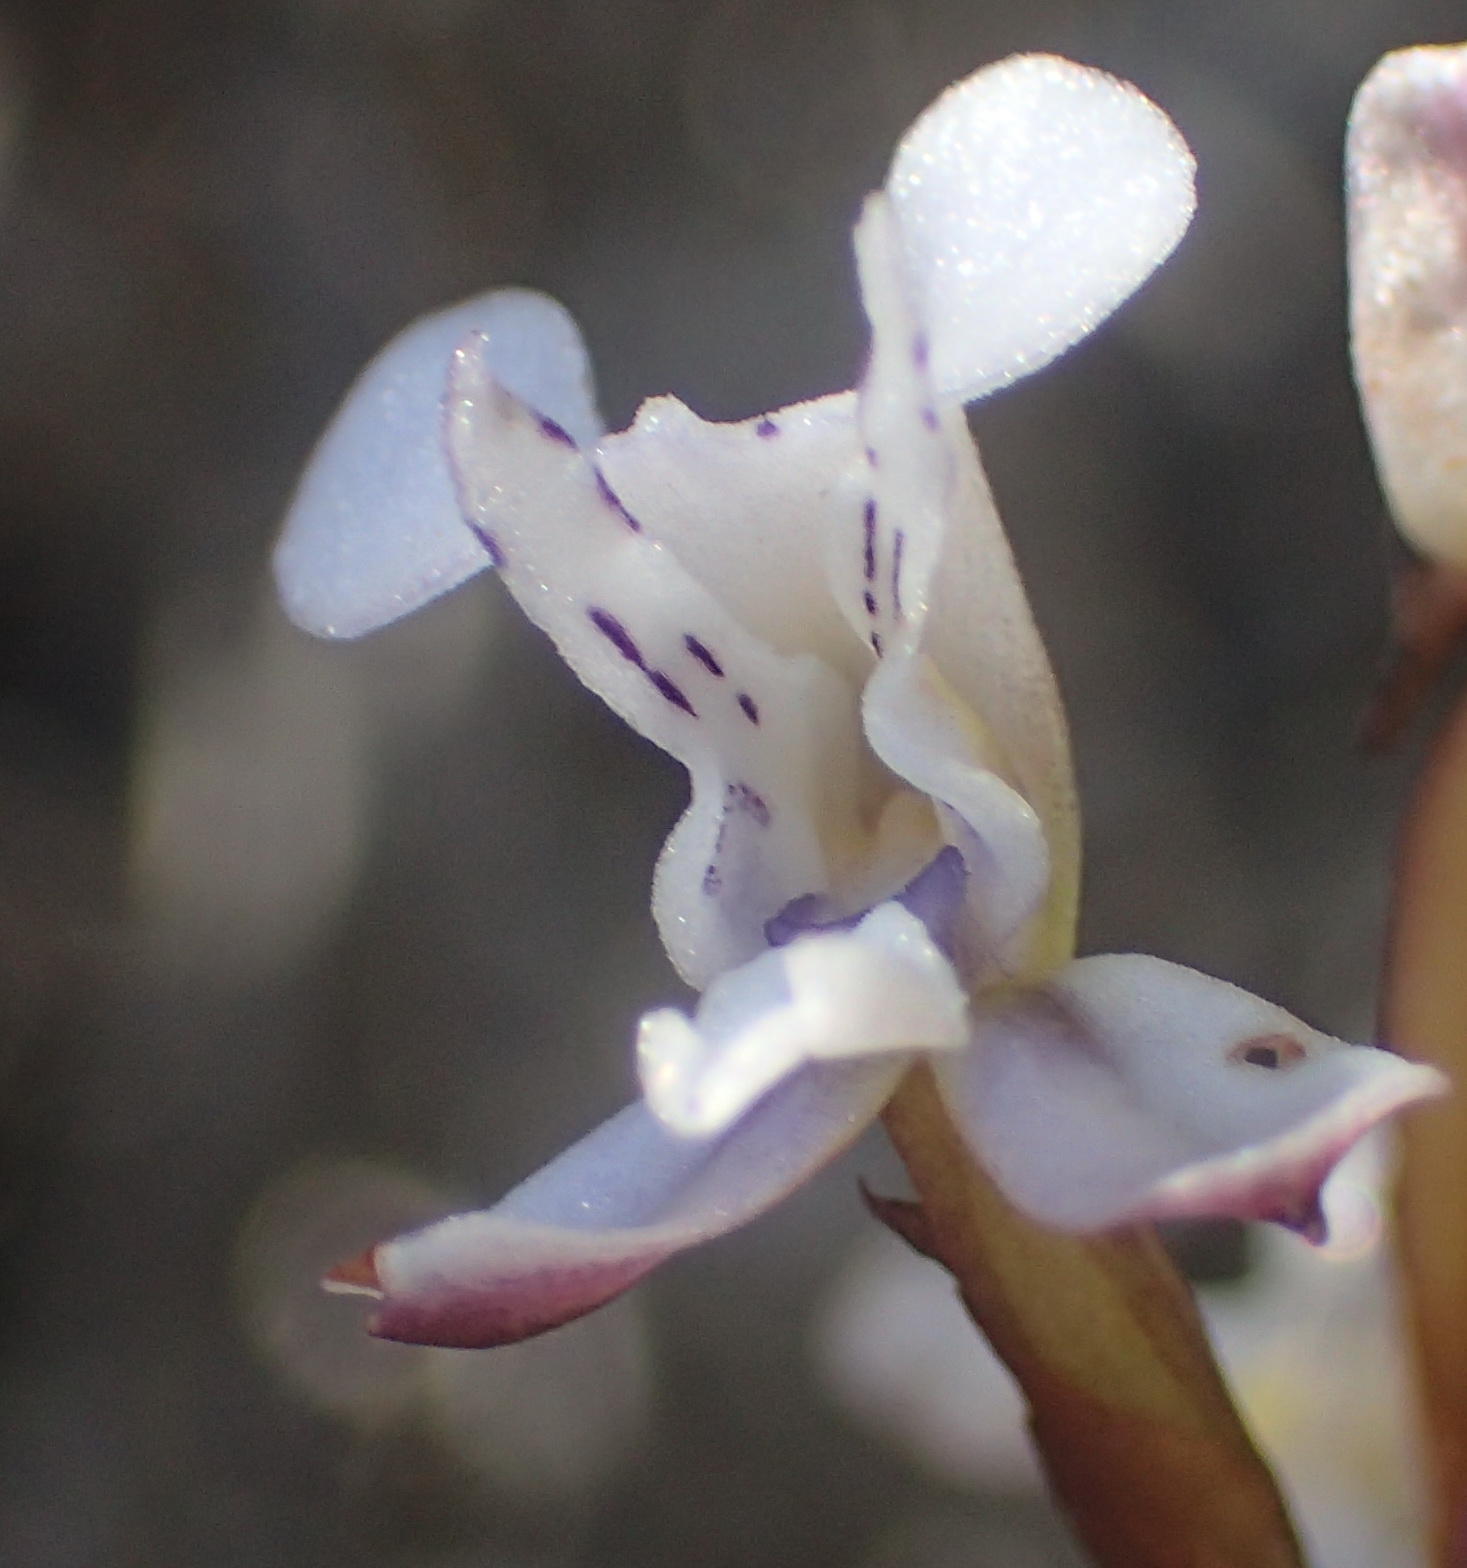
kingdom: Plantae
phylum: Tracheophyta
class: Liliopsida
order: Asparagales
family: Orchidaceae
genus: Disa
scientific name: Disa sagittalis
